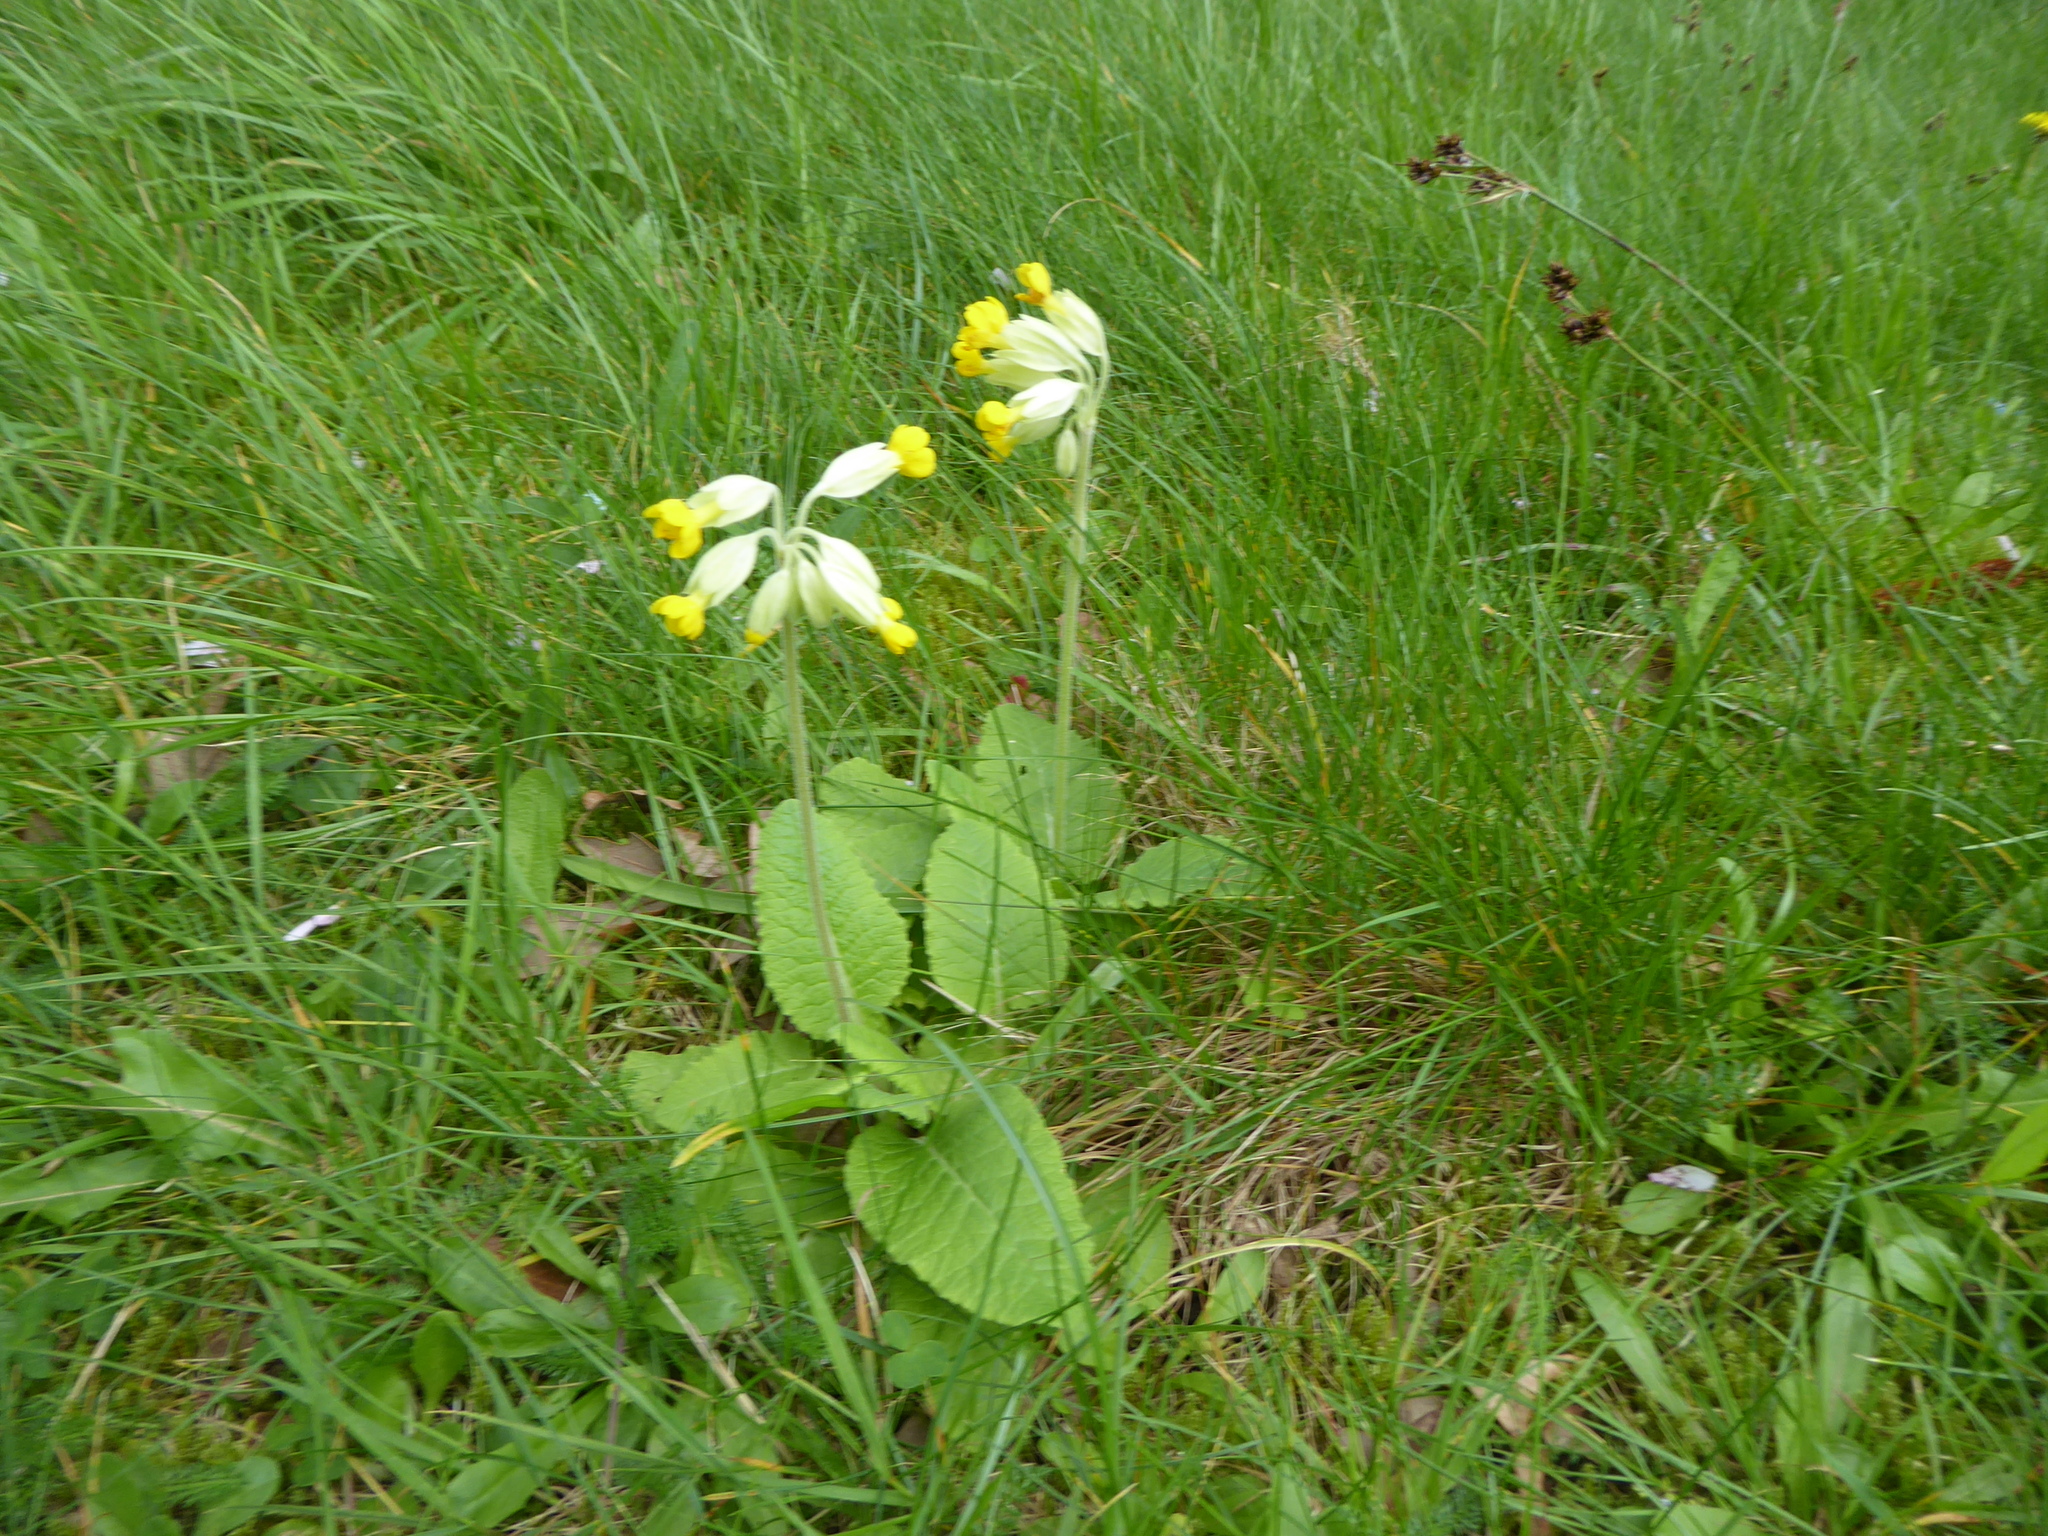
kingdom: Plantae
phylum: Tracheophyta
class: Magnoliopsida
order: Ericales
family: Primulaceae
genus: Primula
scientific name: Primula veris
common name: Cowslip
